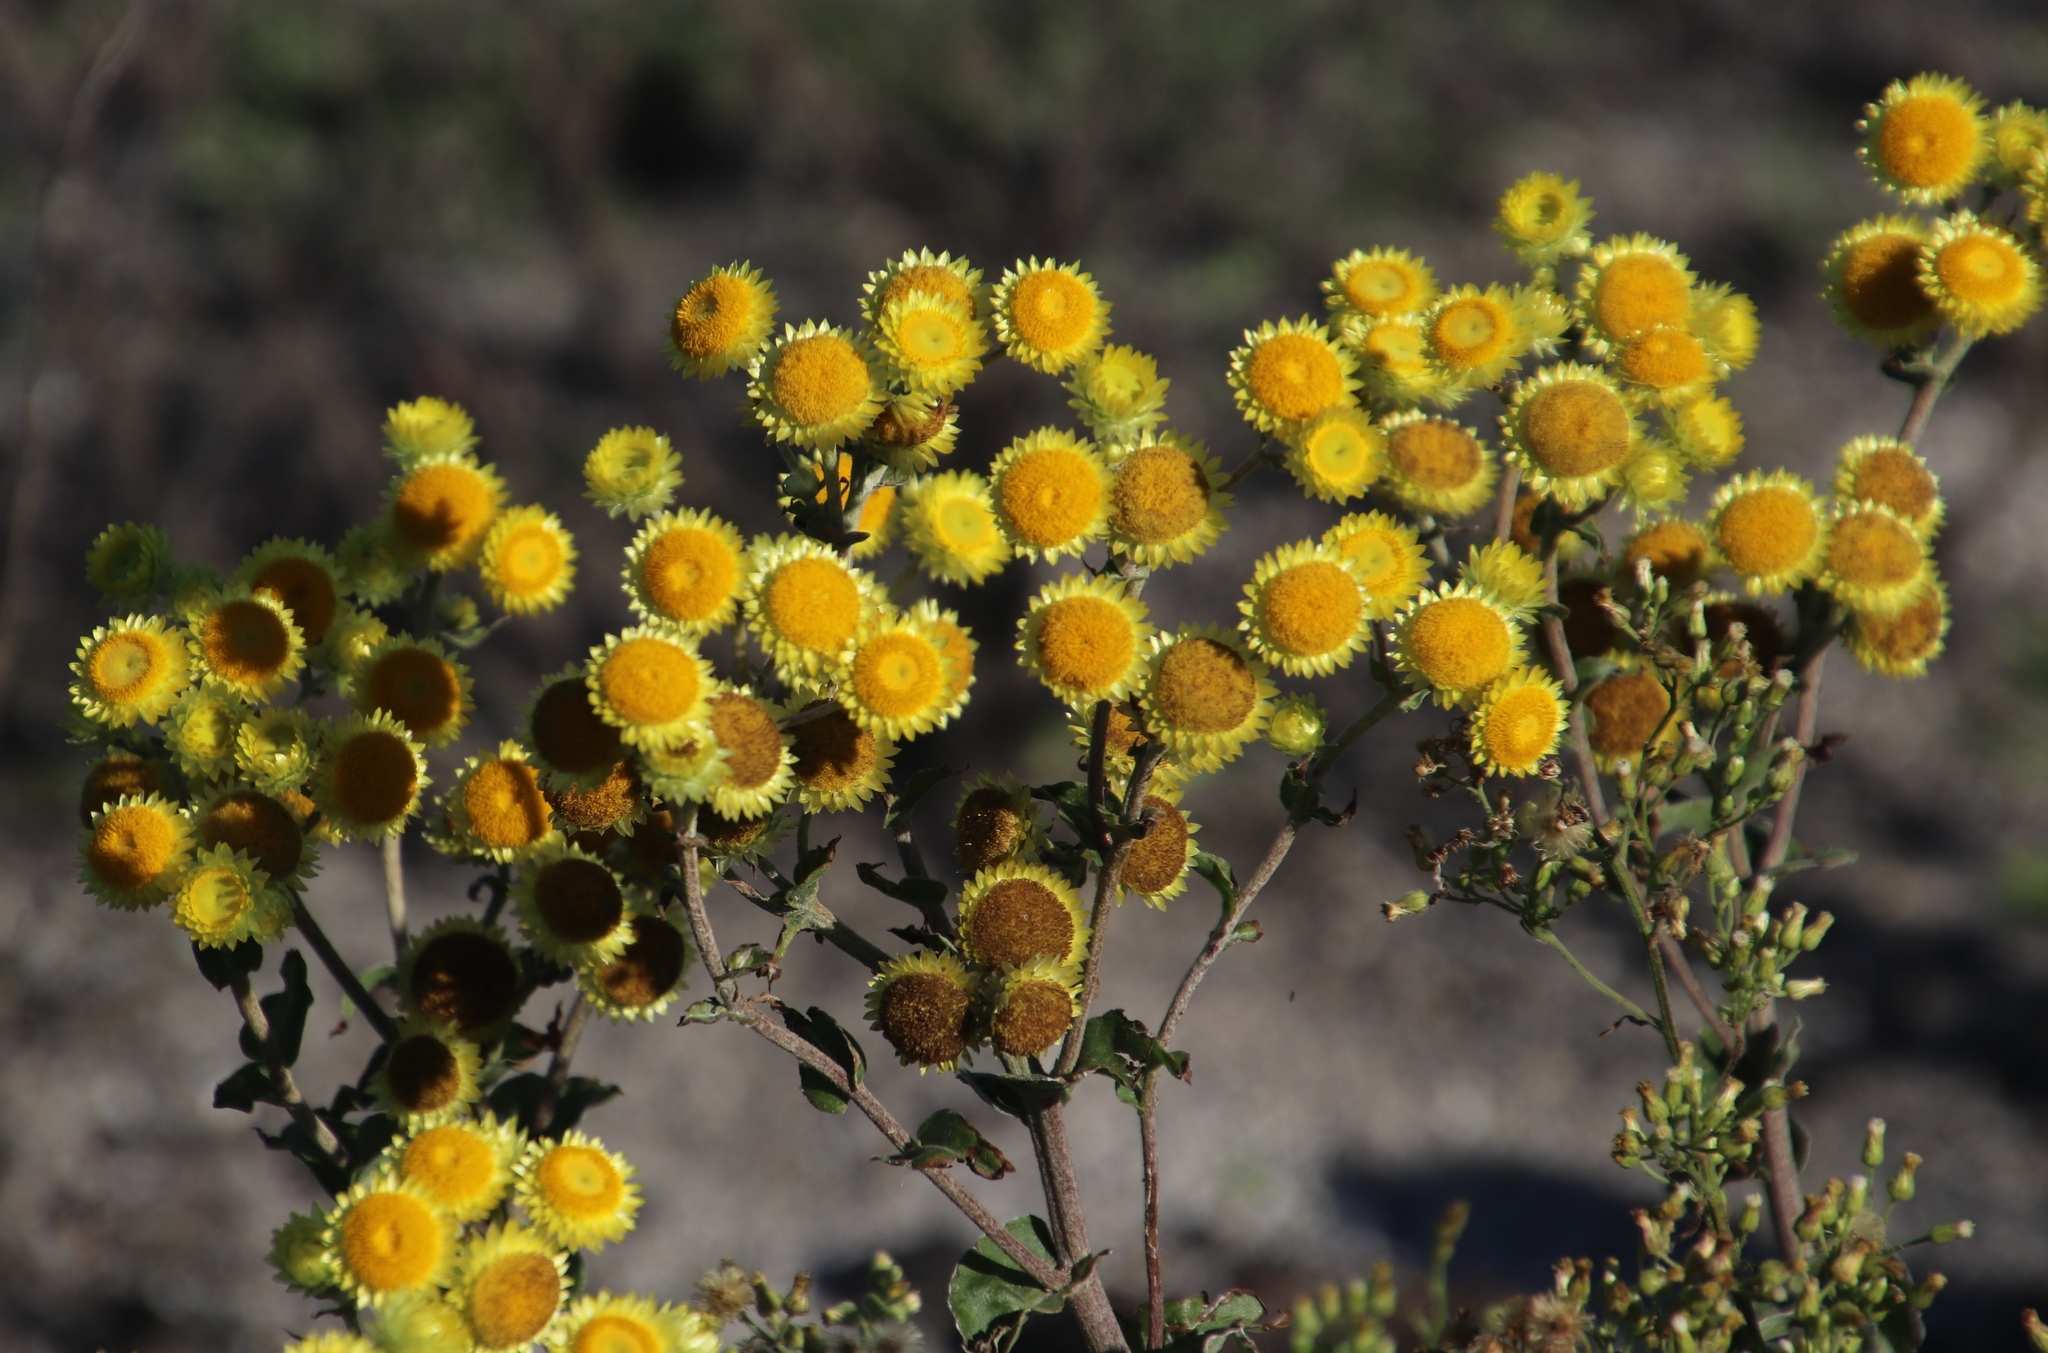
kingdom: Plantae
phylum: Tracheophyta
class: Magnoliopsida
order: Asterales
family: Asteraceae
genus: Helichrysum
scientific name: Helichrysum foetidum
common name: Stinking everlasting
